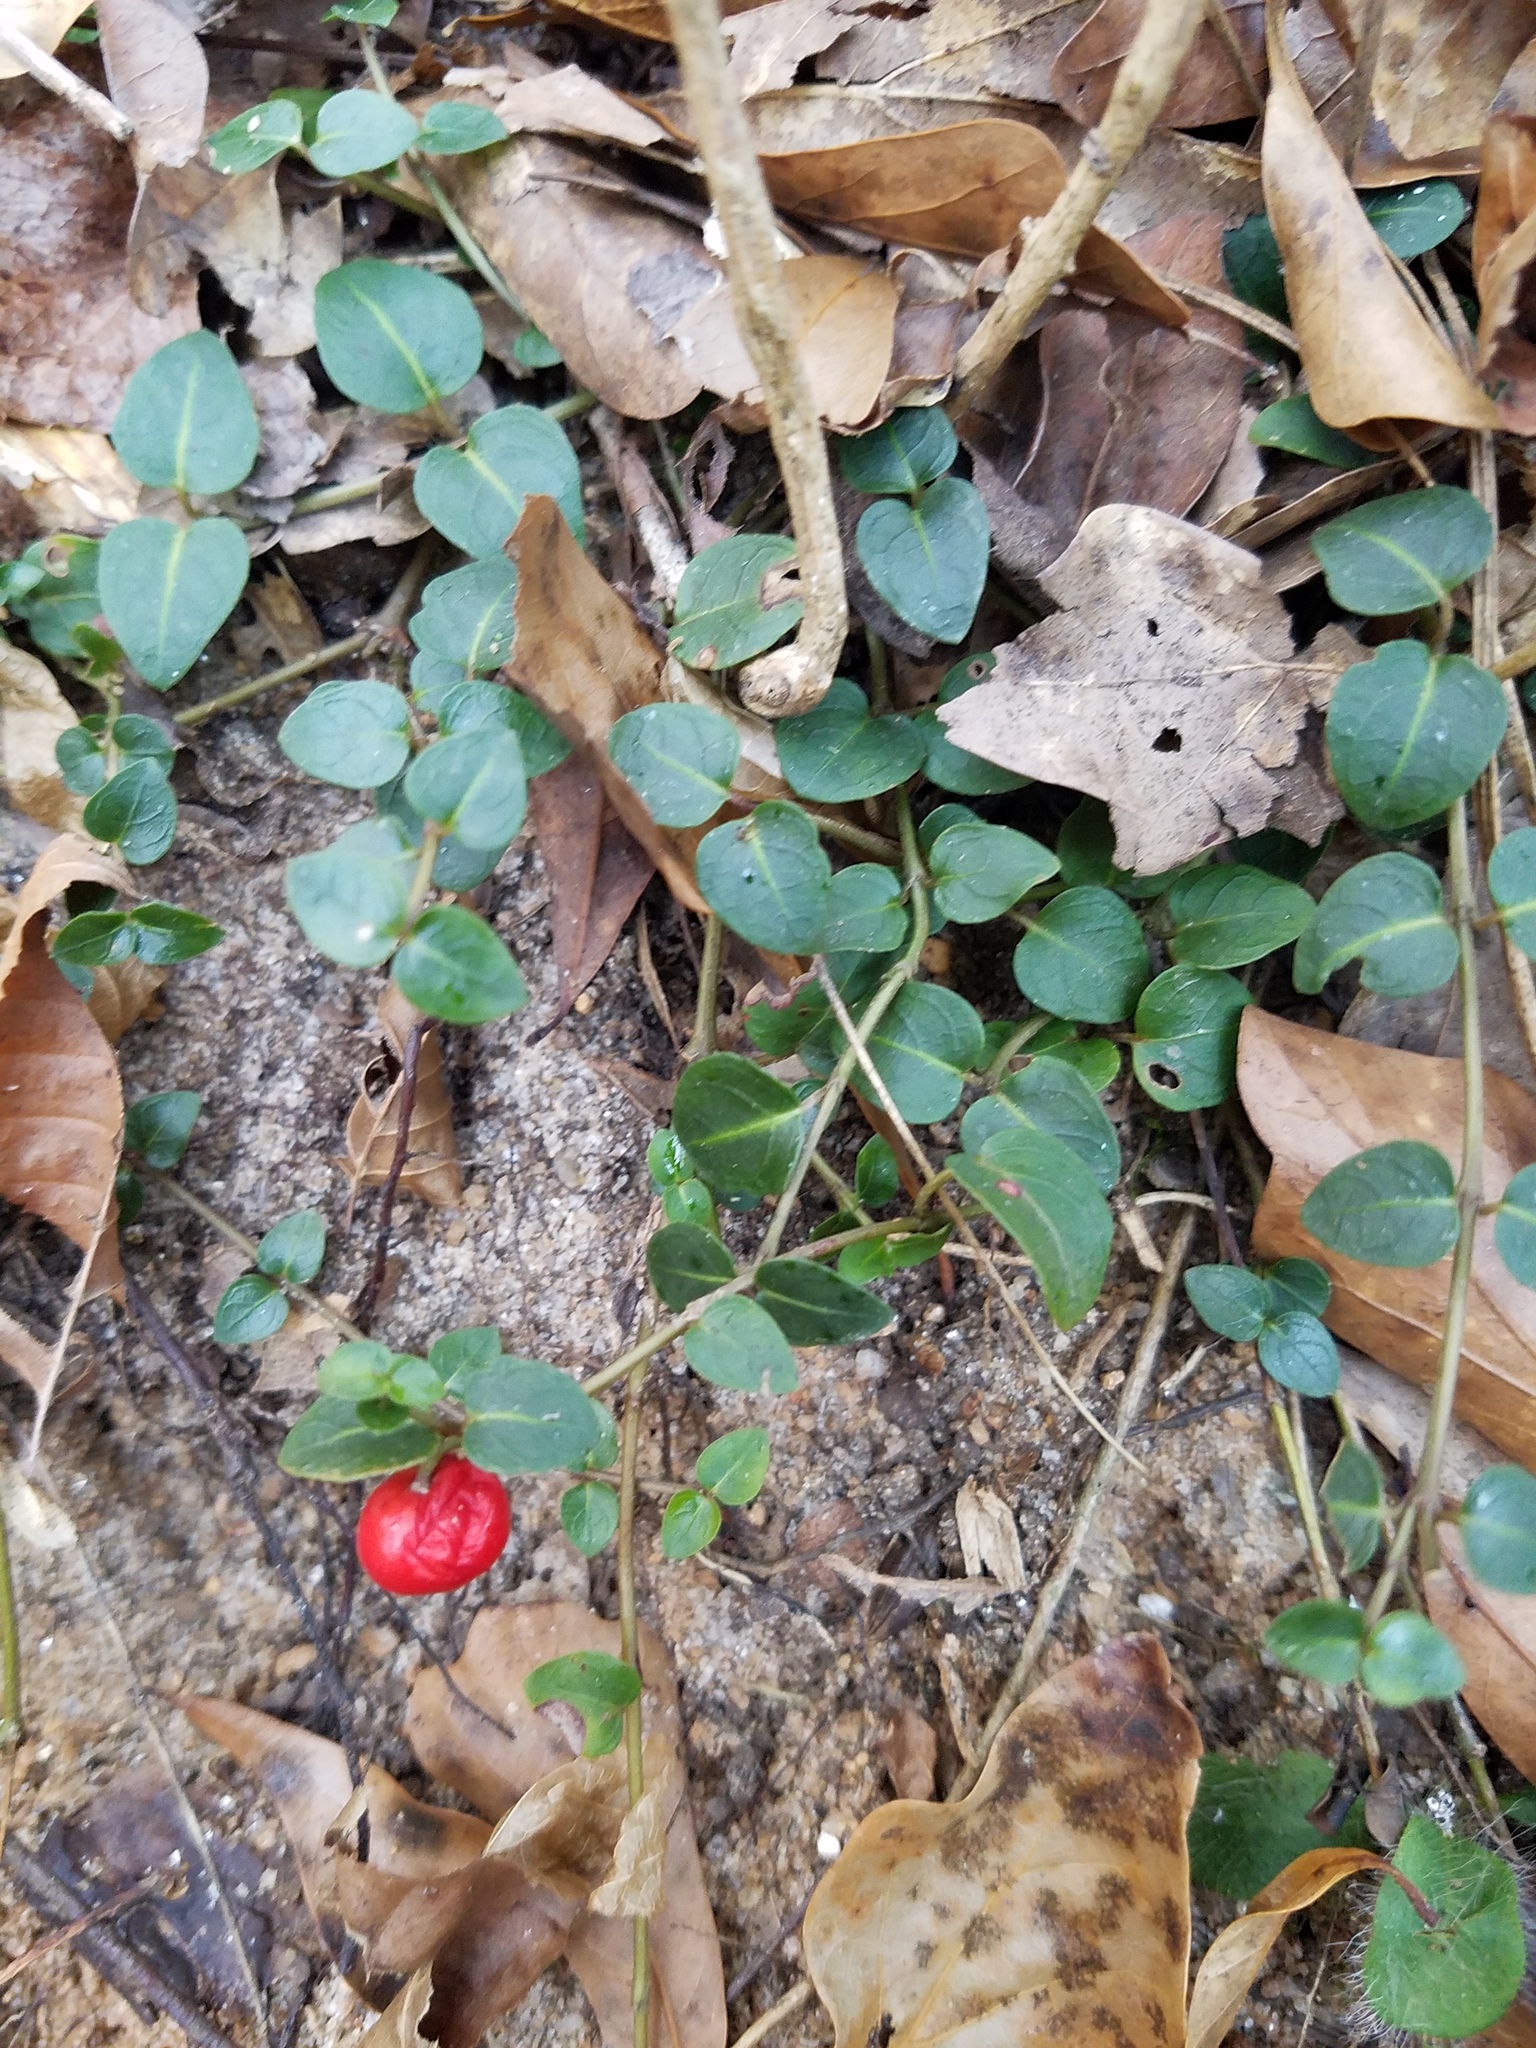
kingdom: Plantae
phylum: Tracheophyta
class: Magnoliopsida
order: Gentianales
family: Rubiaceae
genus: Mitchella
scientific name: Mitchella repens
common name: Partridge-berry
